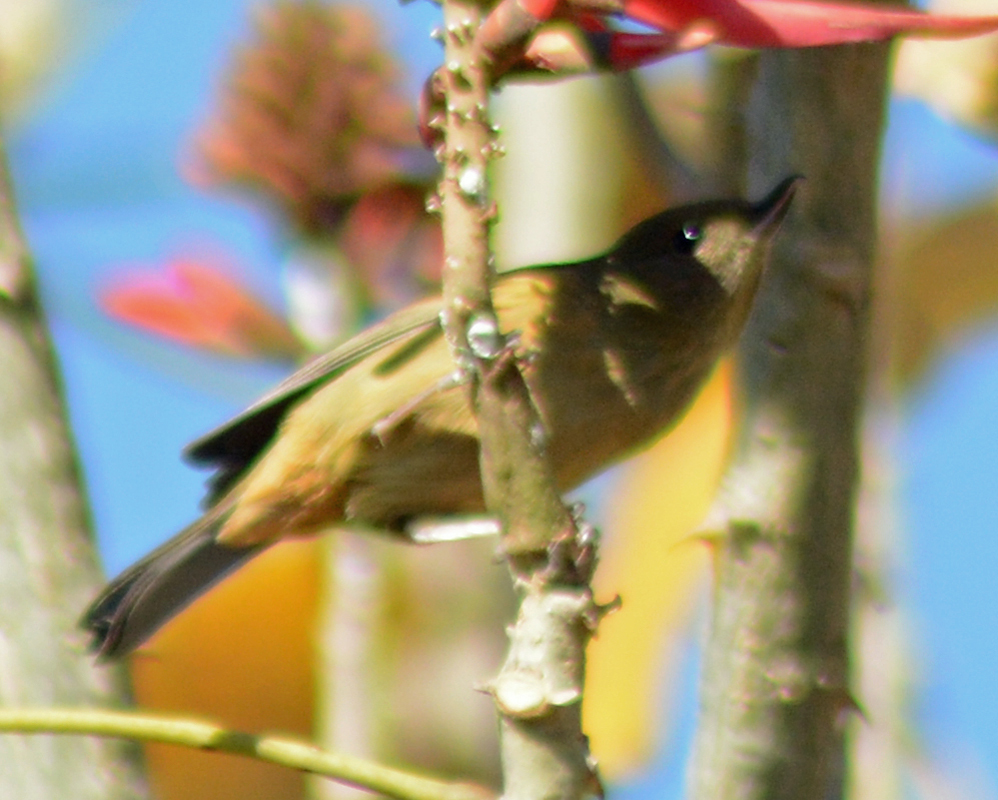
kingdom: Animalia
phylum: Chordata
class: Aves
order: Passeriformes
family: Thraupidae
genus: Diglossa
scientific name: Diglossa baritula
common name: Cinnamon-bellied flowerpiercer
